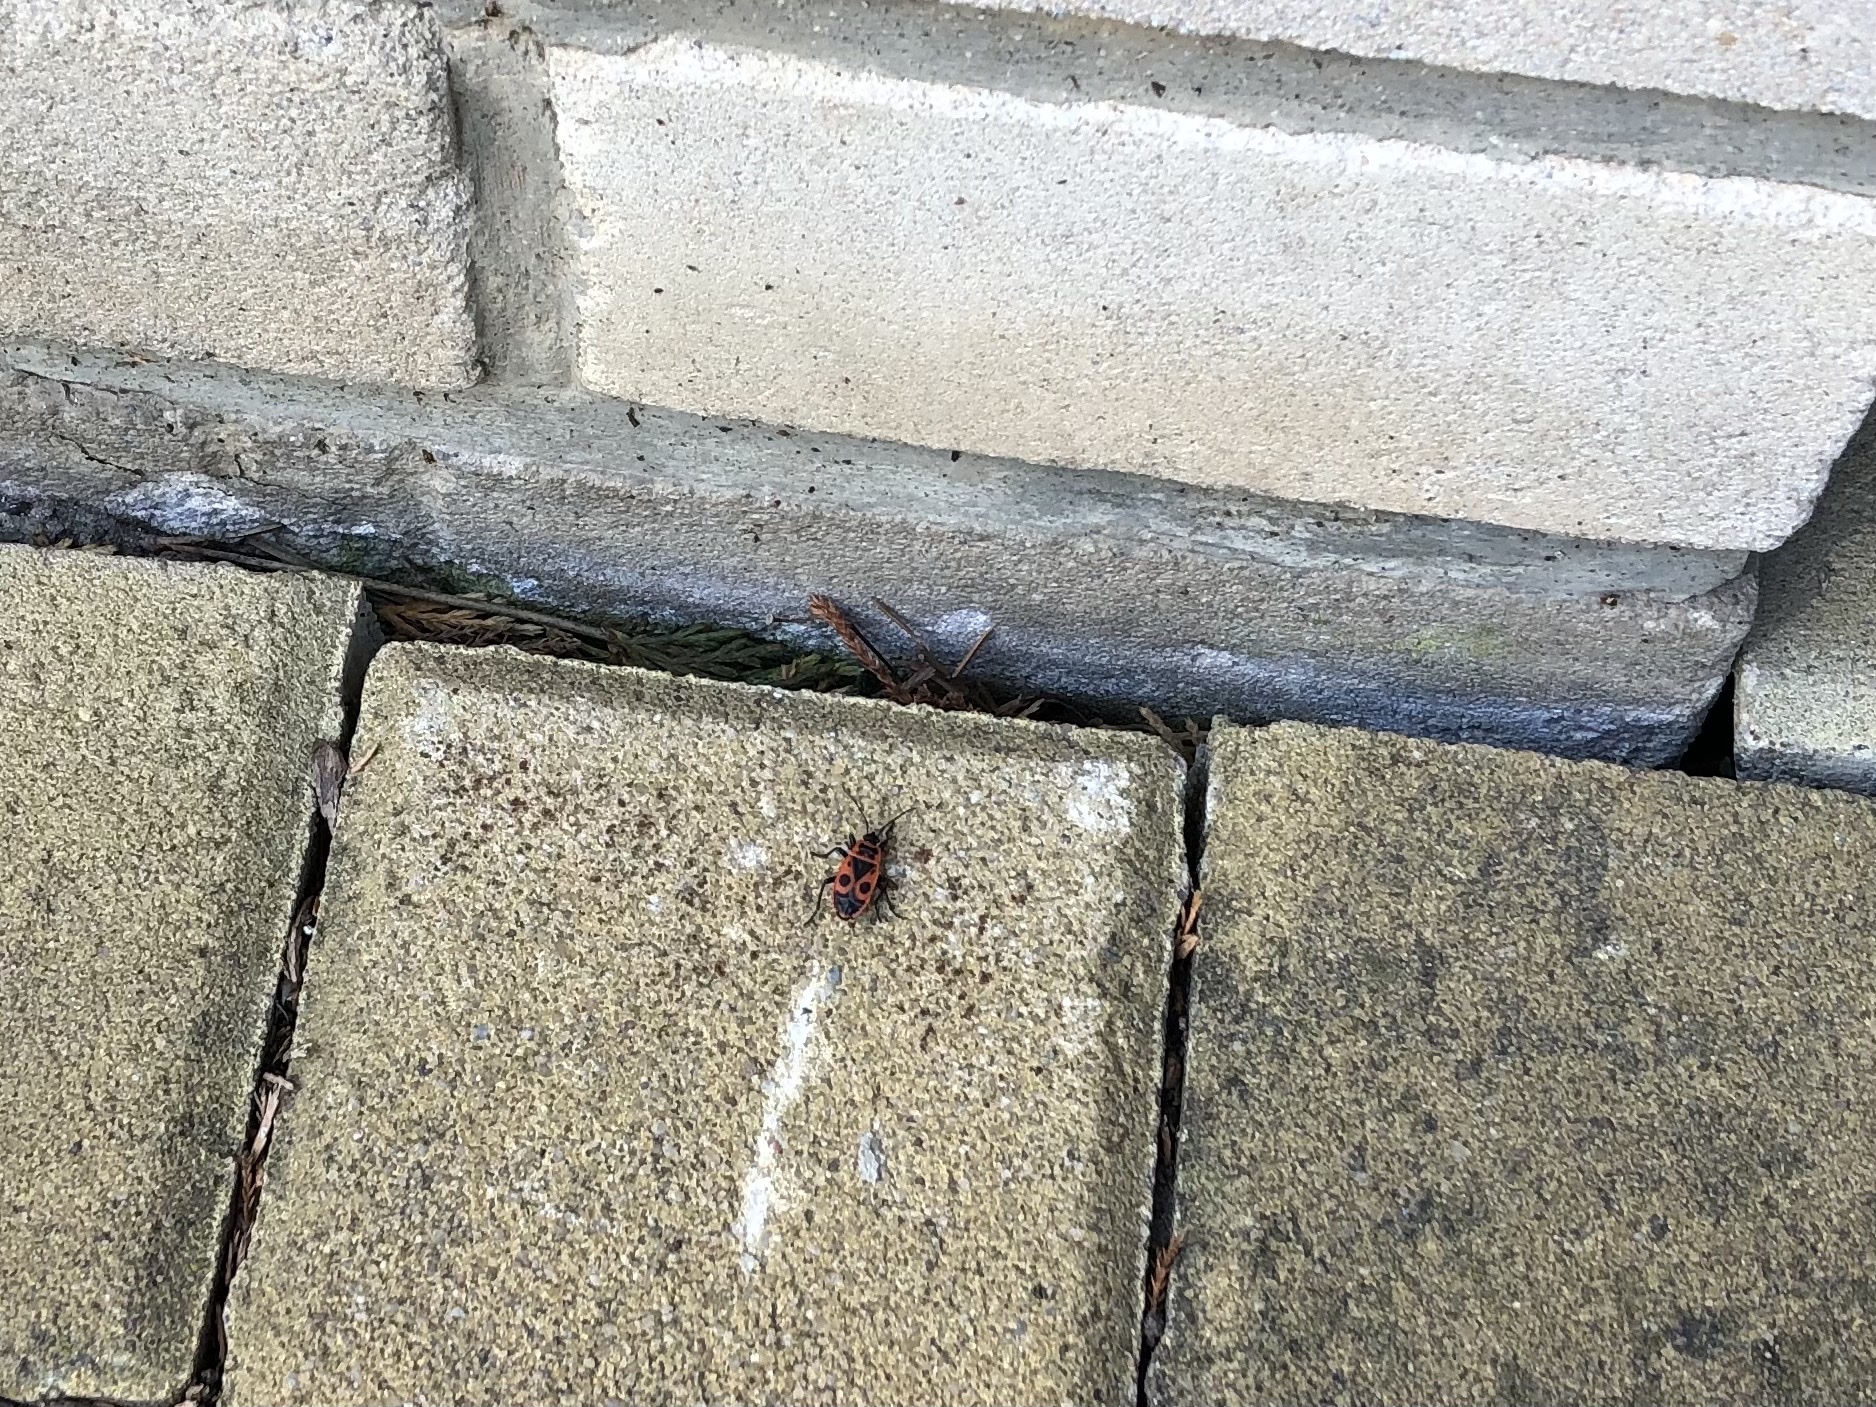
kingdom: Animalia
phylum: Arthropoda
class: Insecta
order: Hemiptera
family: Pyrrhocoridae
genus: Pyrrhocoris
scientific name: Pyrrhocoris apterus
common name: Firebug
